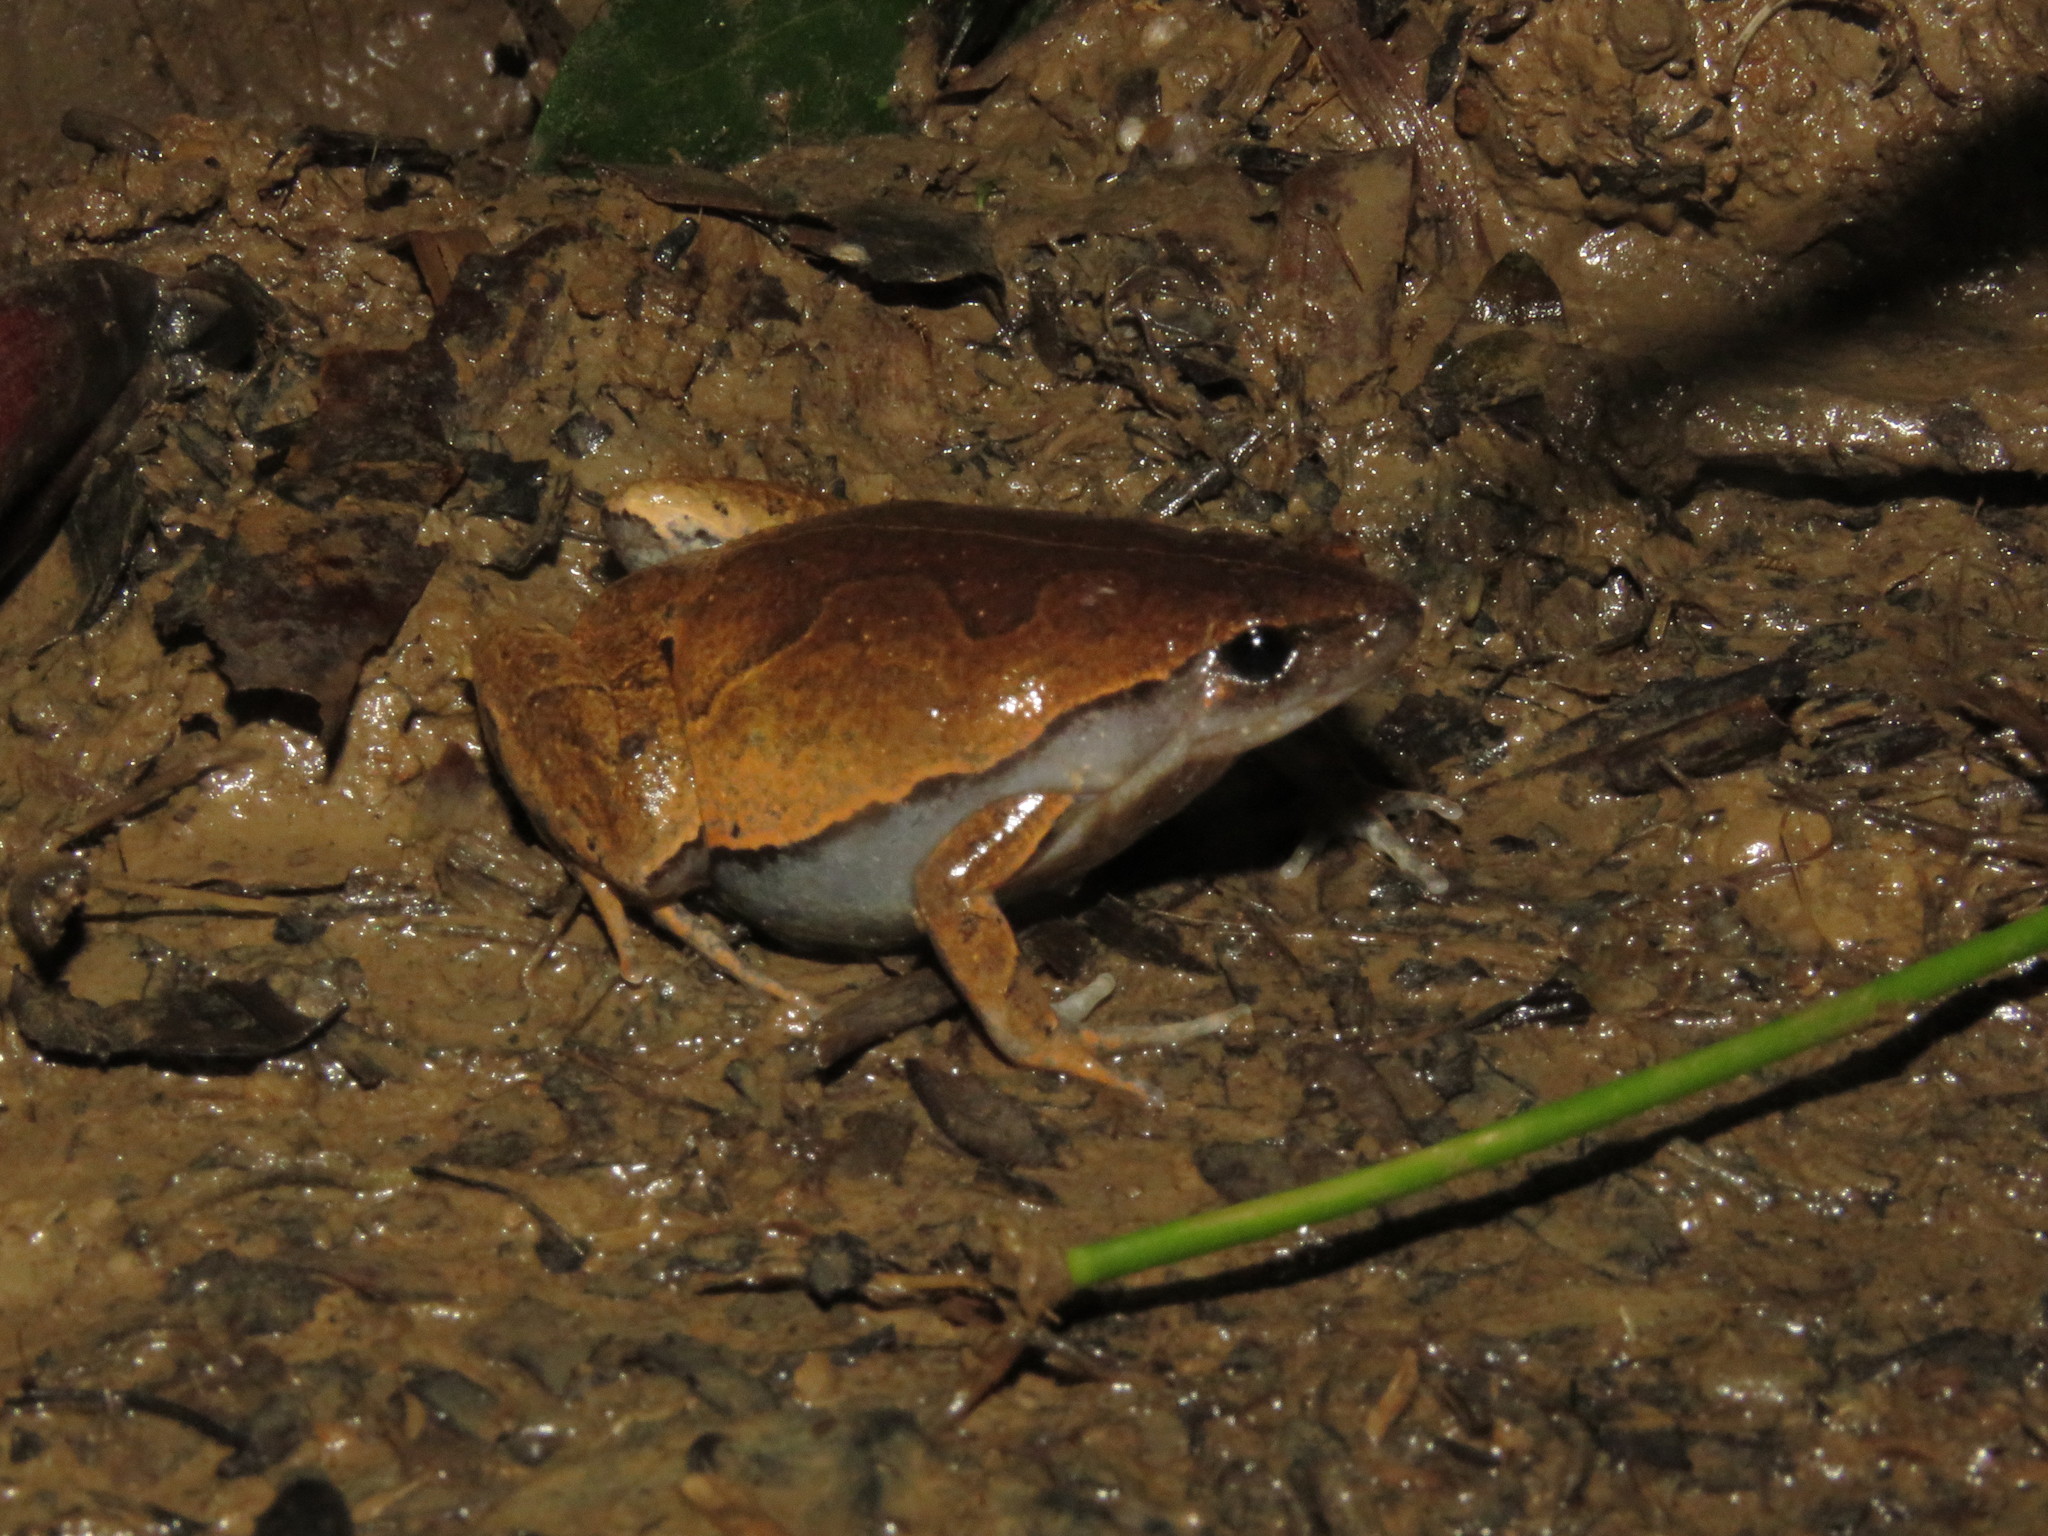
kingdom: Animalia
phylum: Chordata
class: Amphibia
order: Anura
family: Microhylidae
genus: Hamptophryne
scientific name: Hamptophryne boliviana
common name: Bolivian bleating frog
